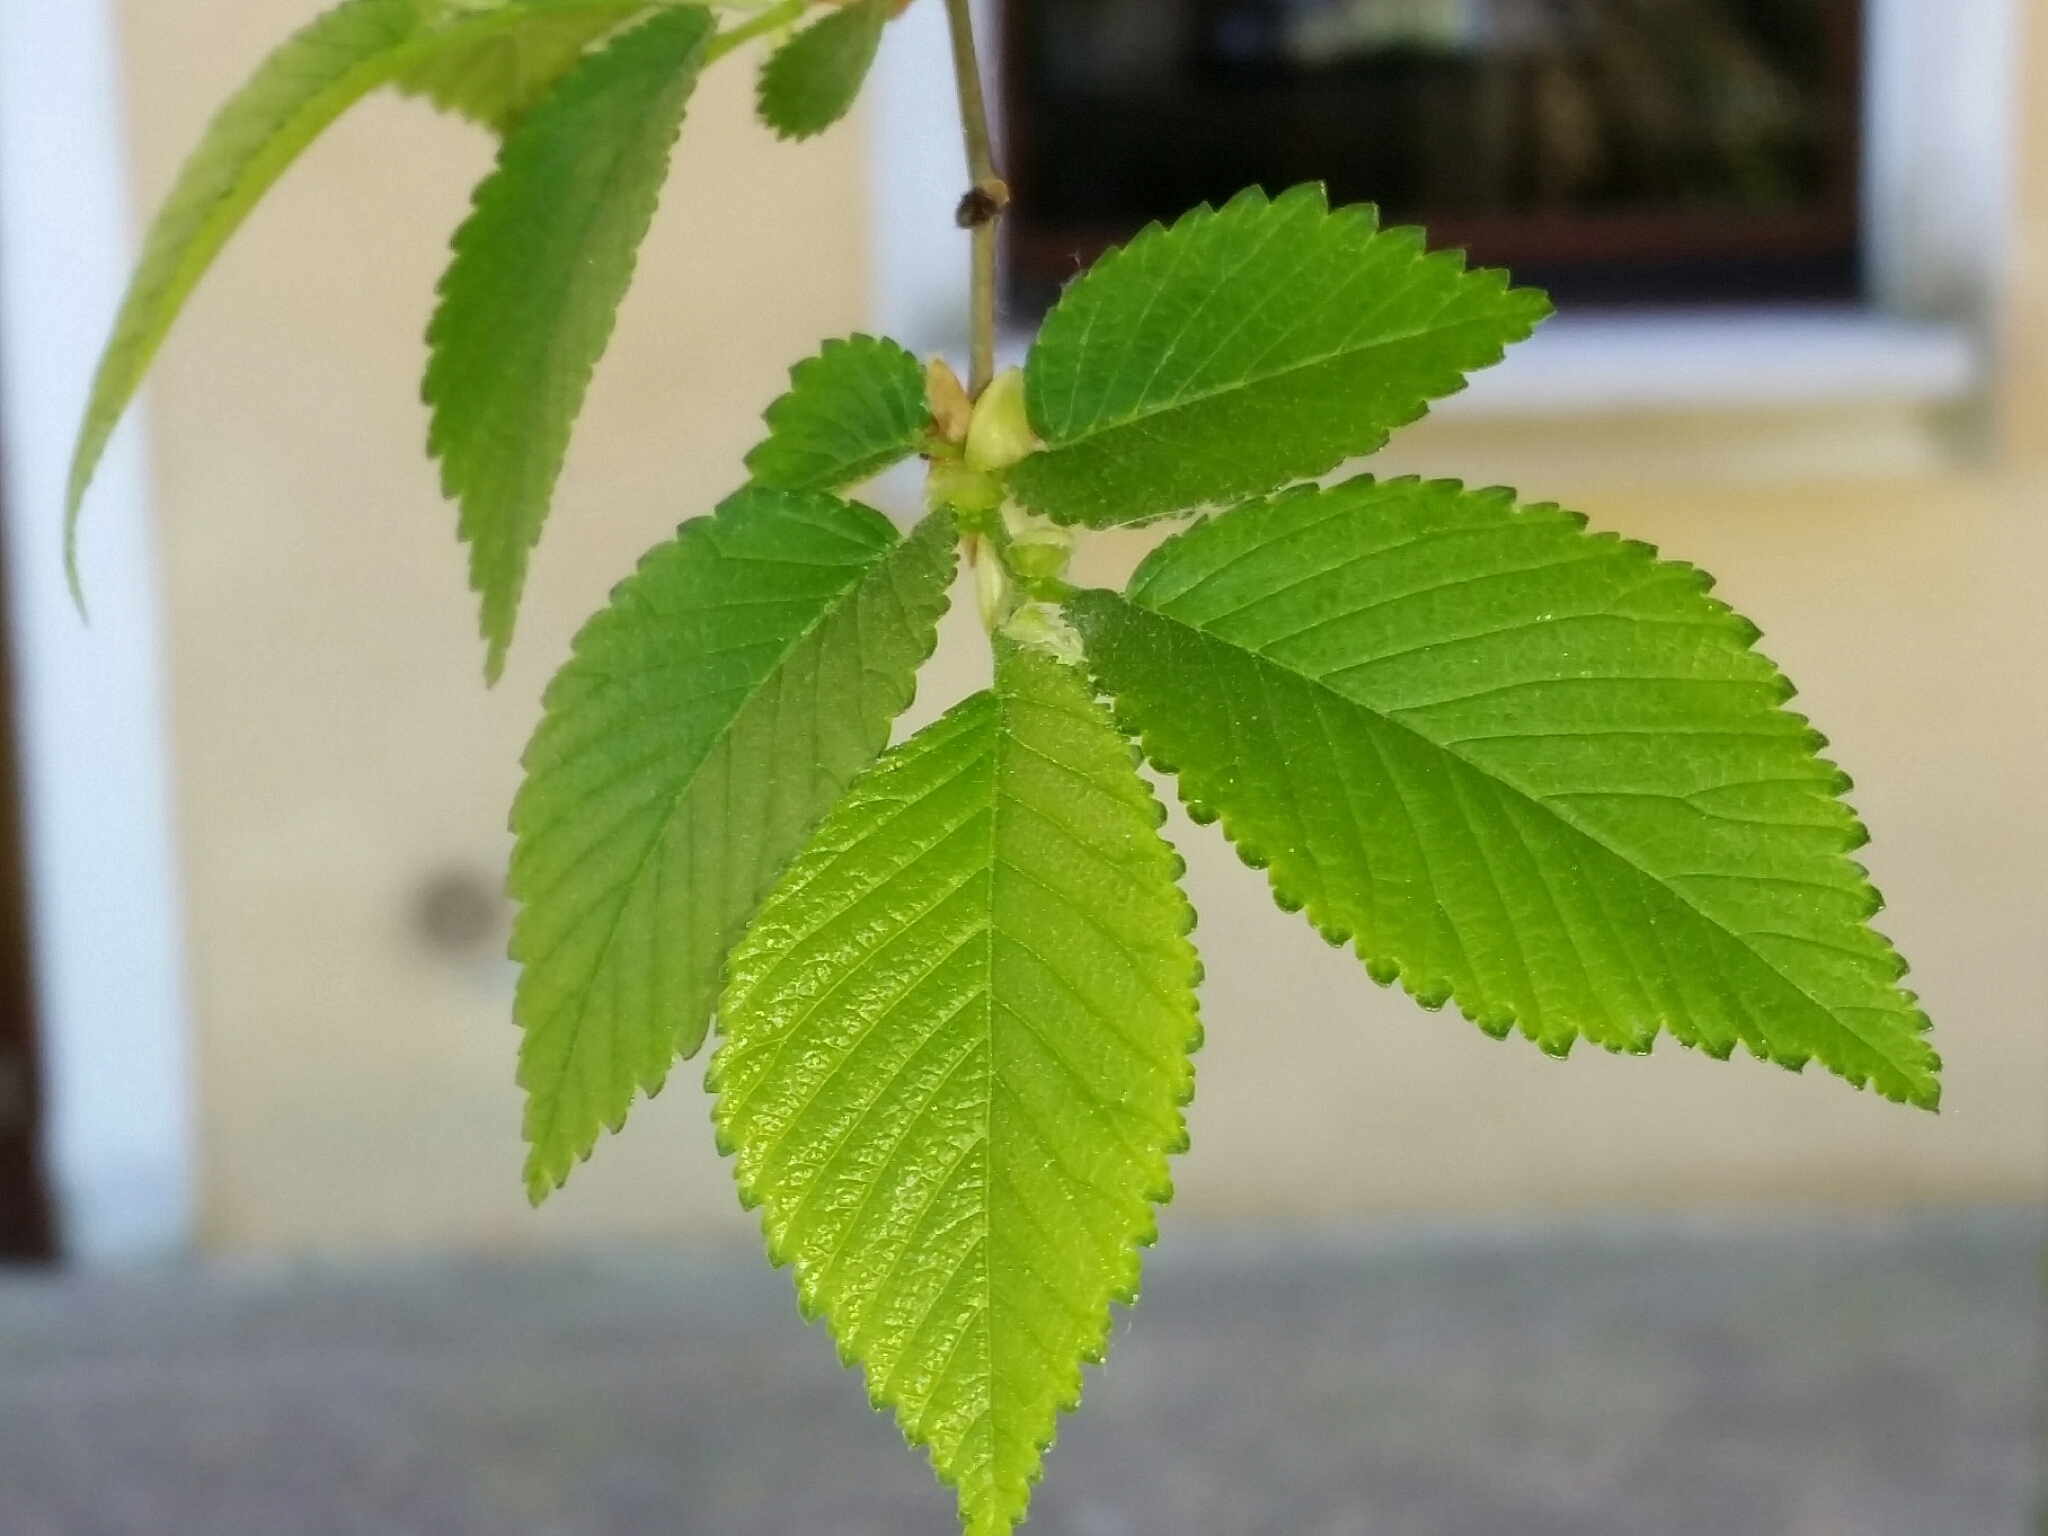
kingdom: Plantae
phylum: Tracheophyta
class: Magnoliopsida
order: Rosales
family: Ulmaceae
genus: Ulmus
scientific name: Ulmus minor
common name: Small-leaved elm
